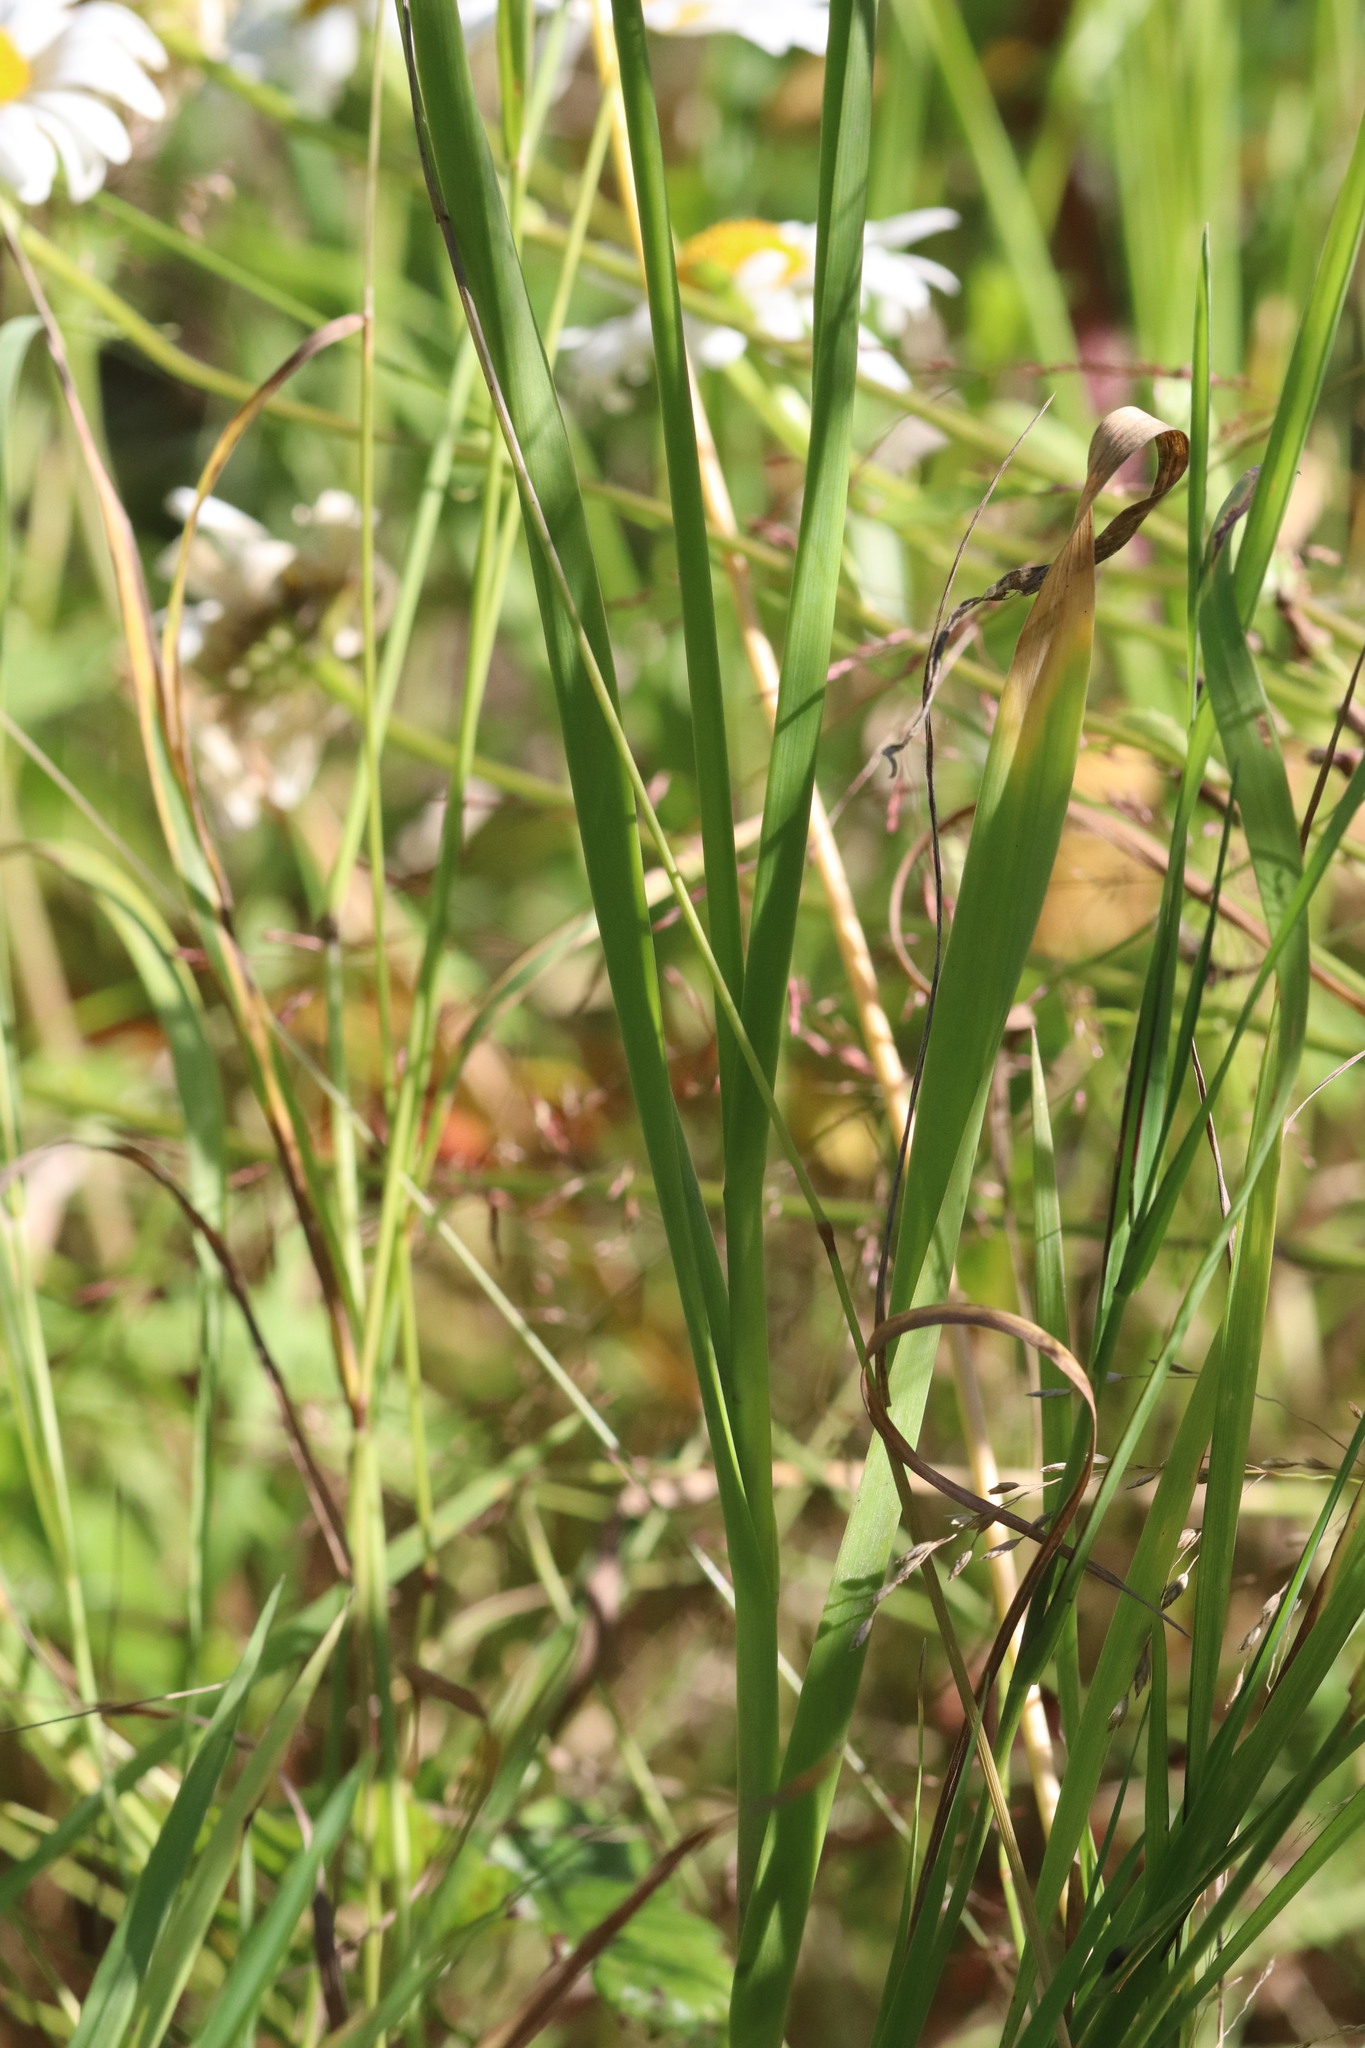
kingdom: Plantae
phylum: Tracheophyta
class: Liliopsida
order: Asparagales
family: Amaryllidaceae
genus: Allium
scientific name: Allium obliquum
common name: Oblique onion
